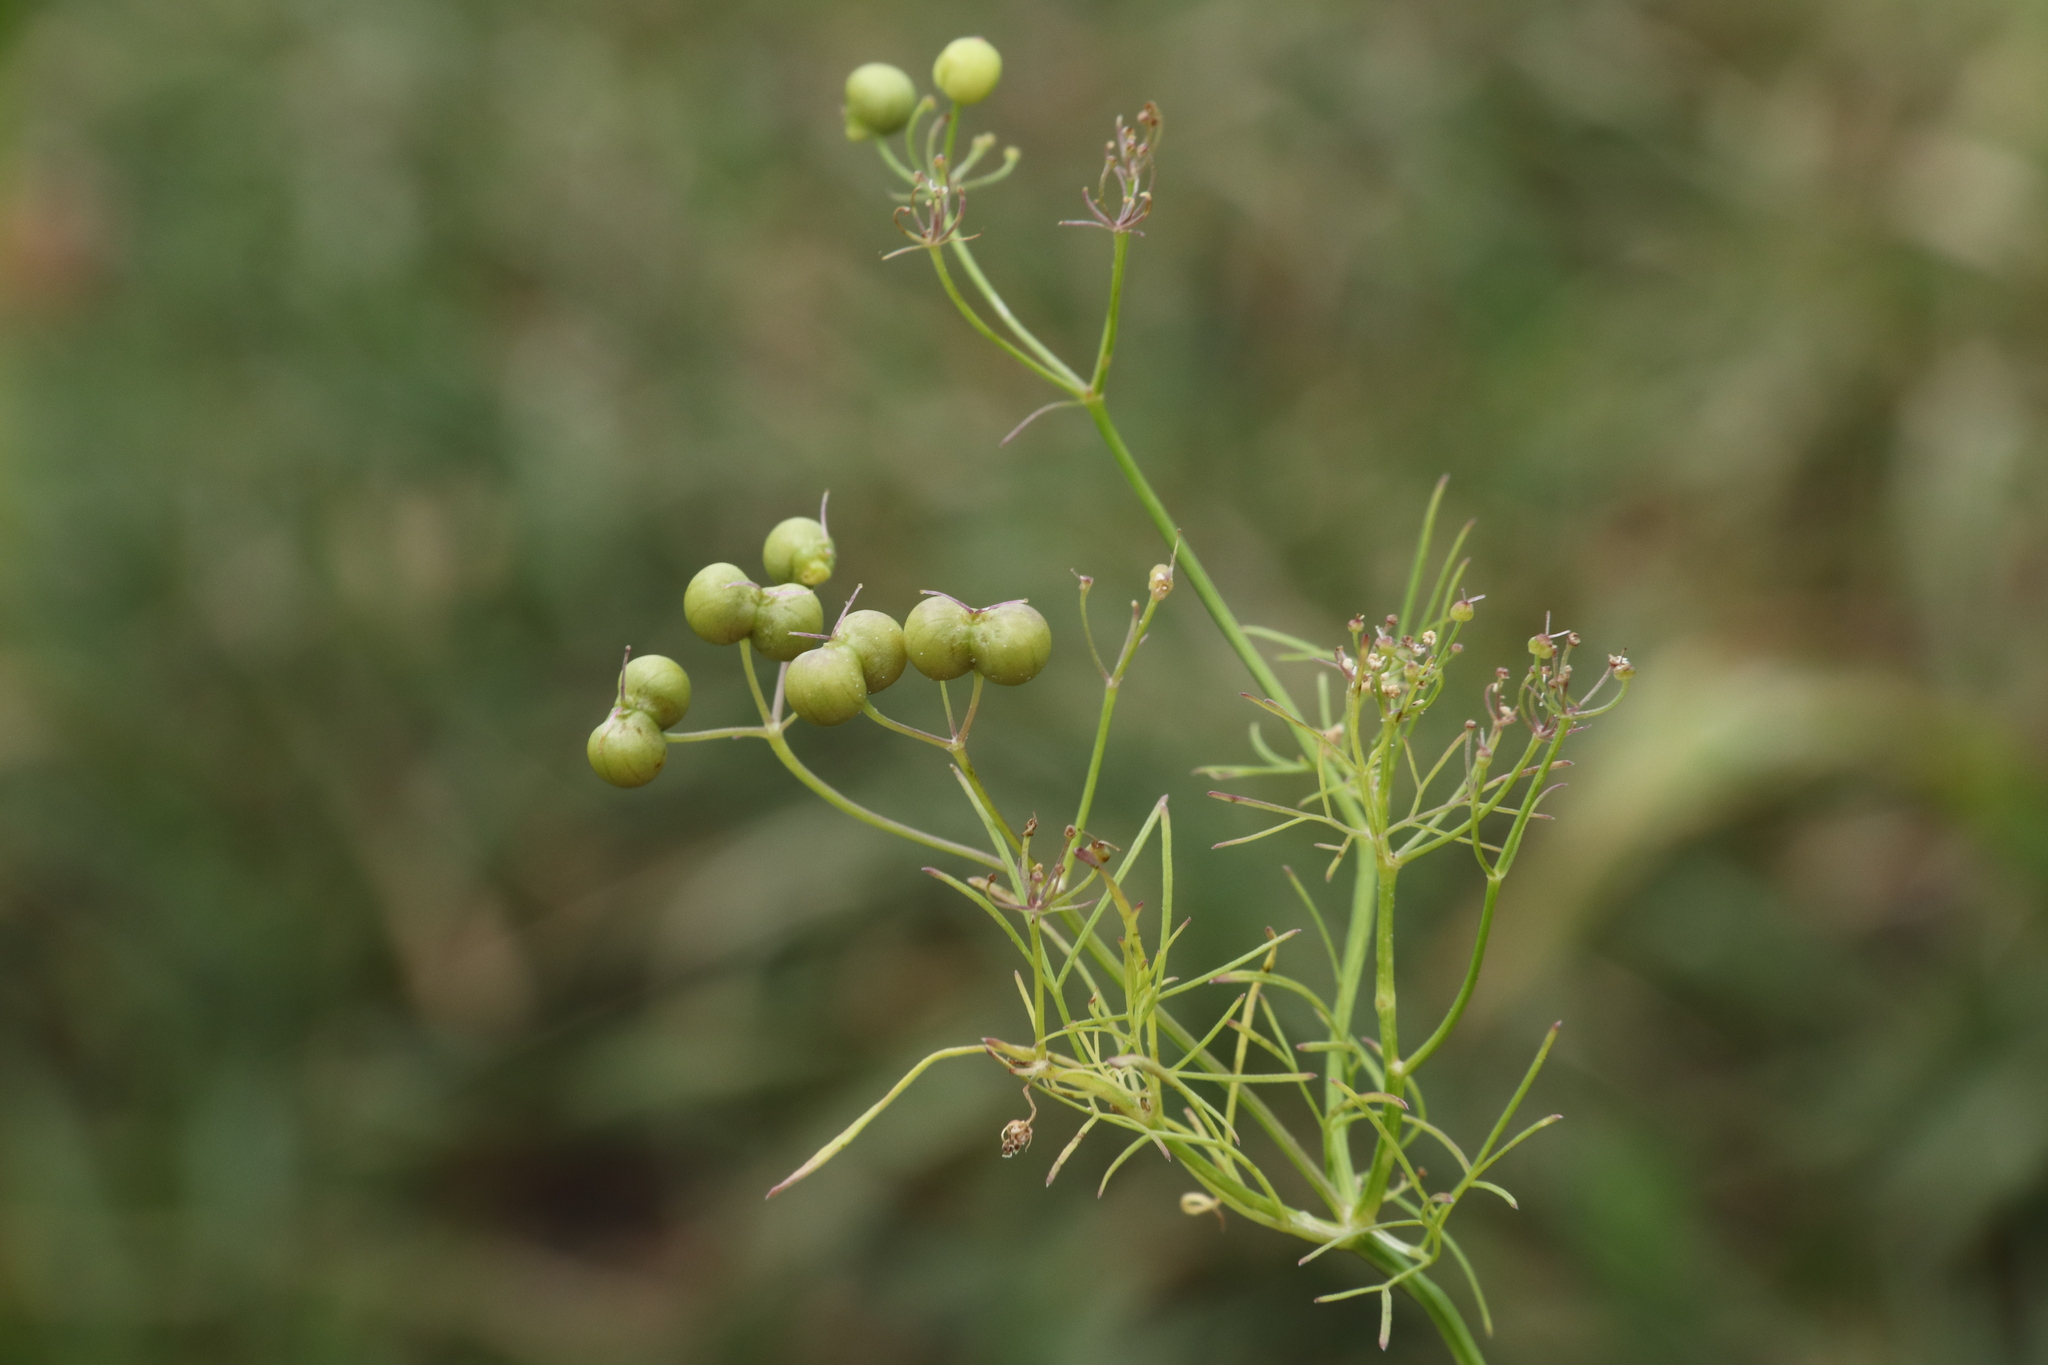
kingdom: Plantae
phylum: Tracheophyta
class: Magnoliopsida
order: Apiales
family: Apiaceae
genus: Bifora
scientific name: Bifora radians
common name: Wild bishop
